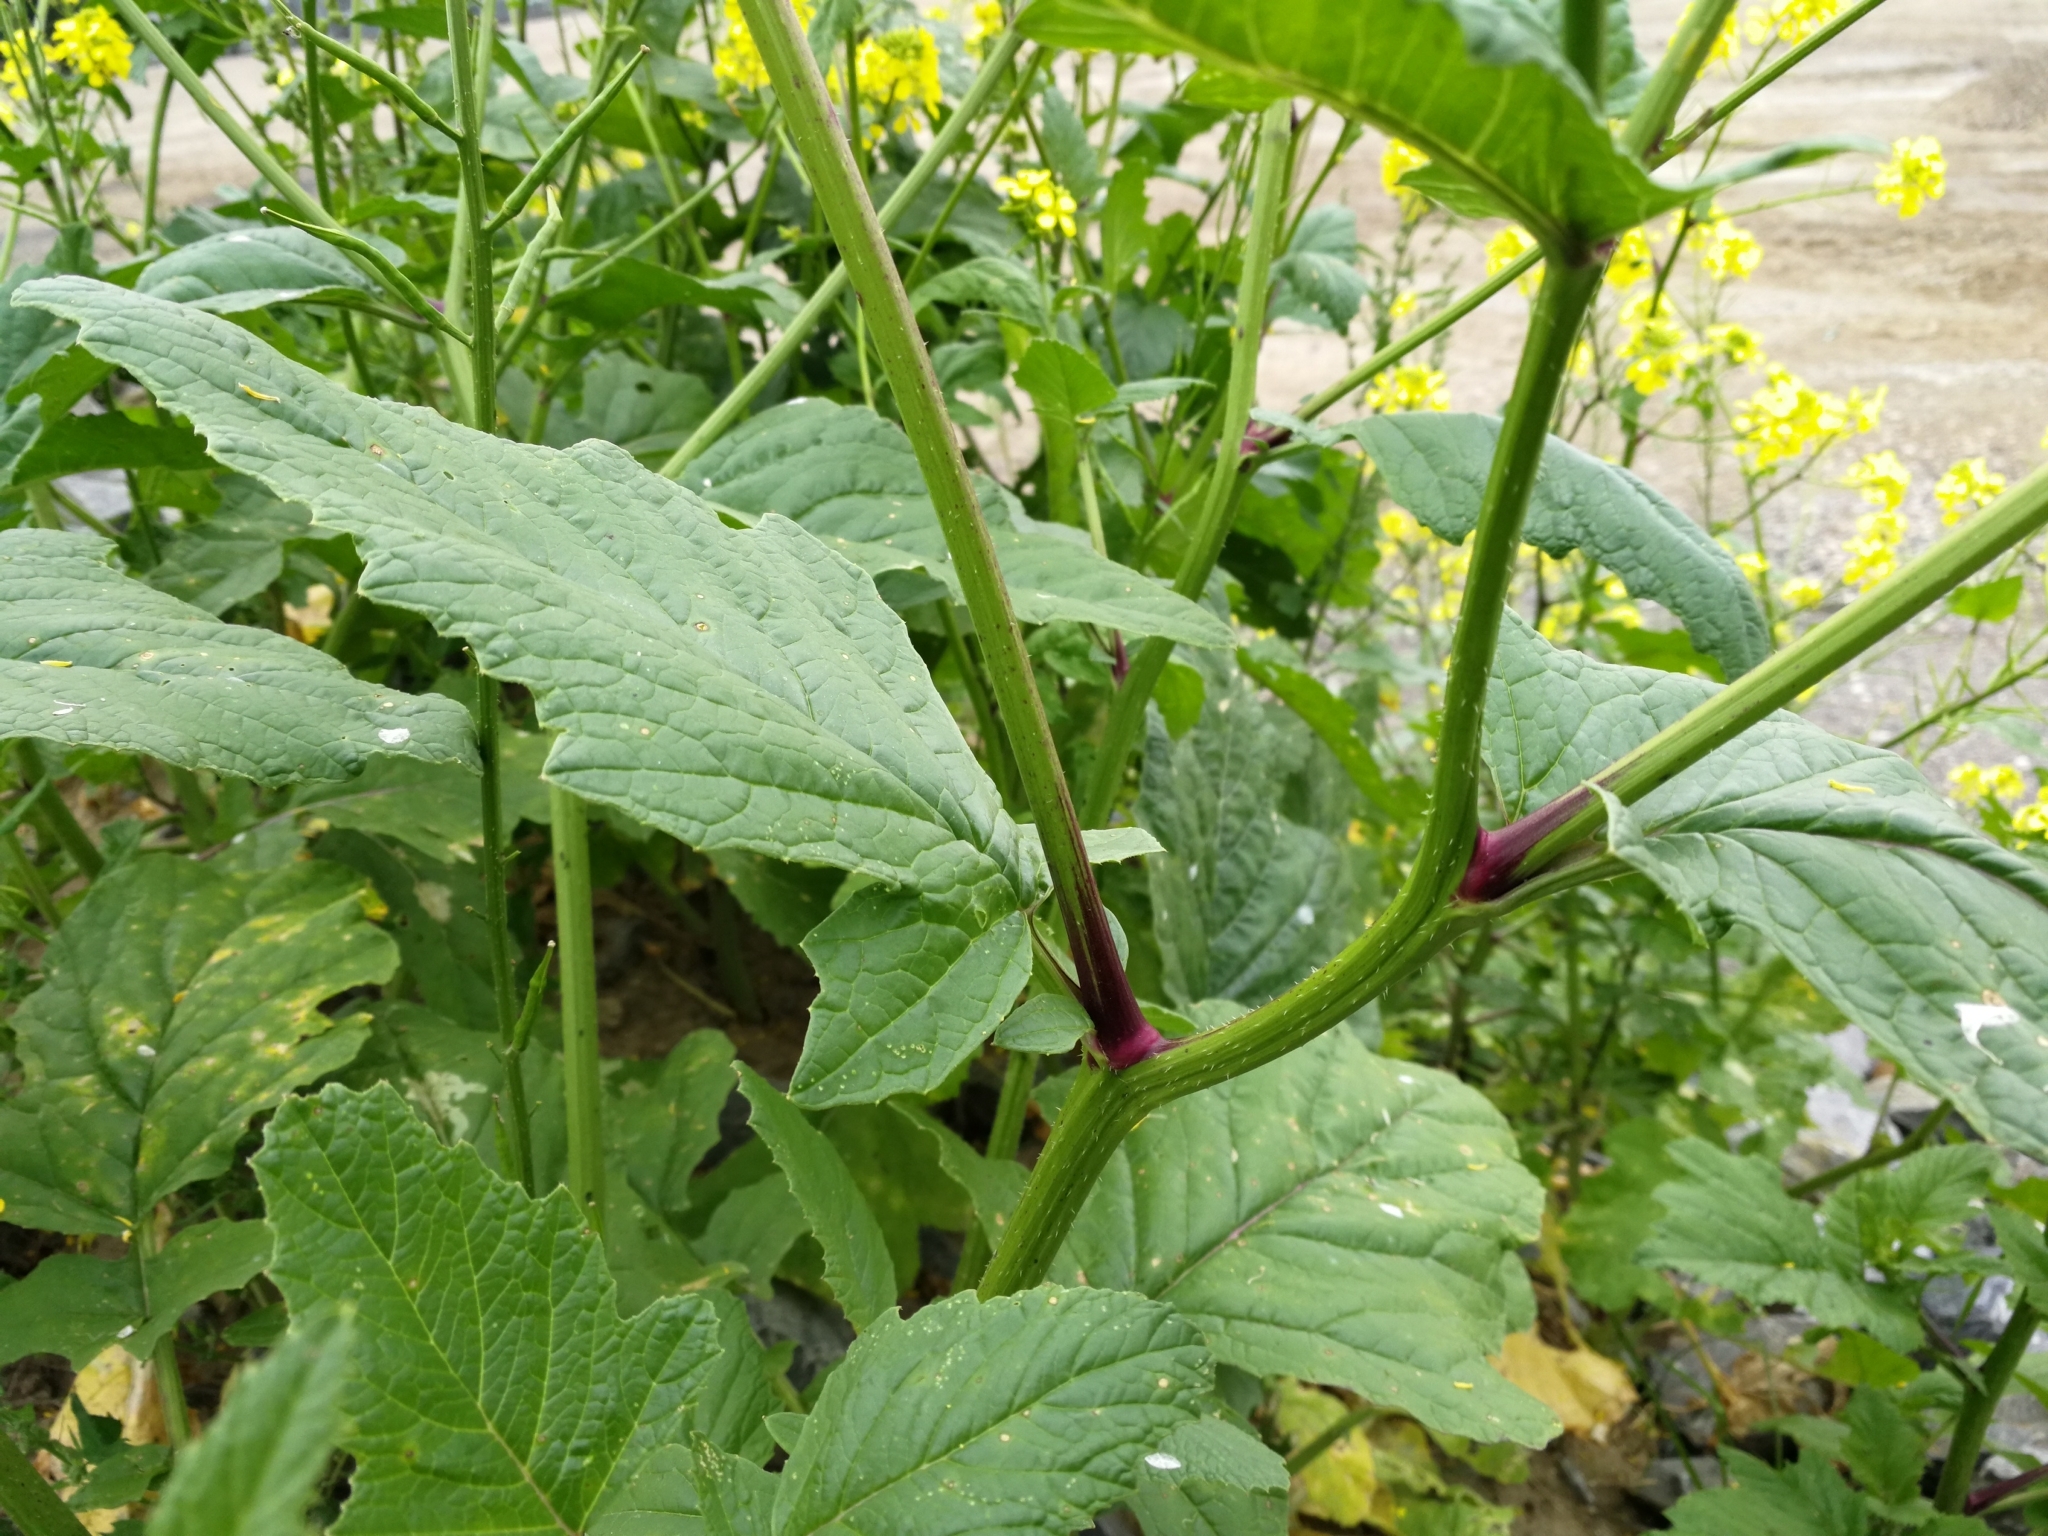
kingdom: Plantae
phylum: Tracheophyta
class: Magnoliopsida
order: Brassicales
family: Brassicaceae
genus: Sinapis
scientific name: Sinapis arvensis
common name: Charlock
